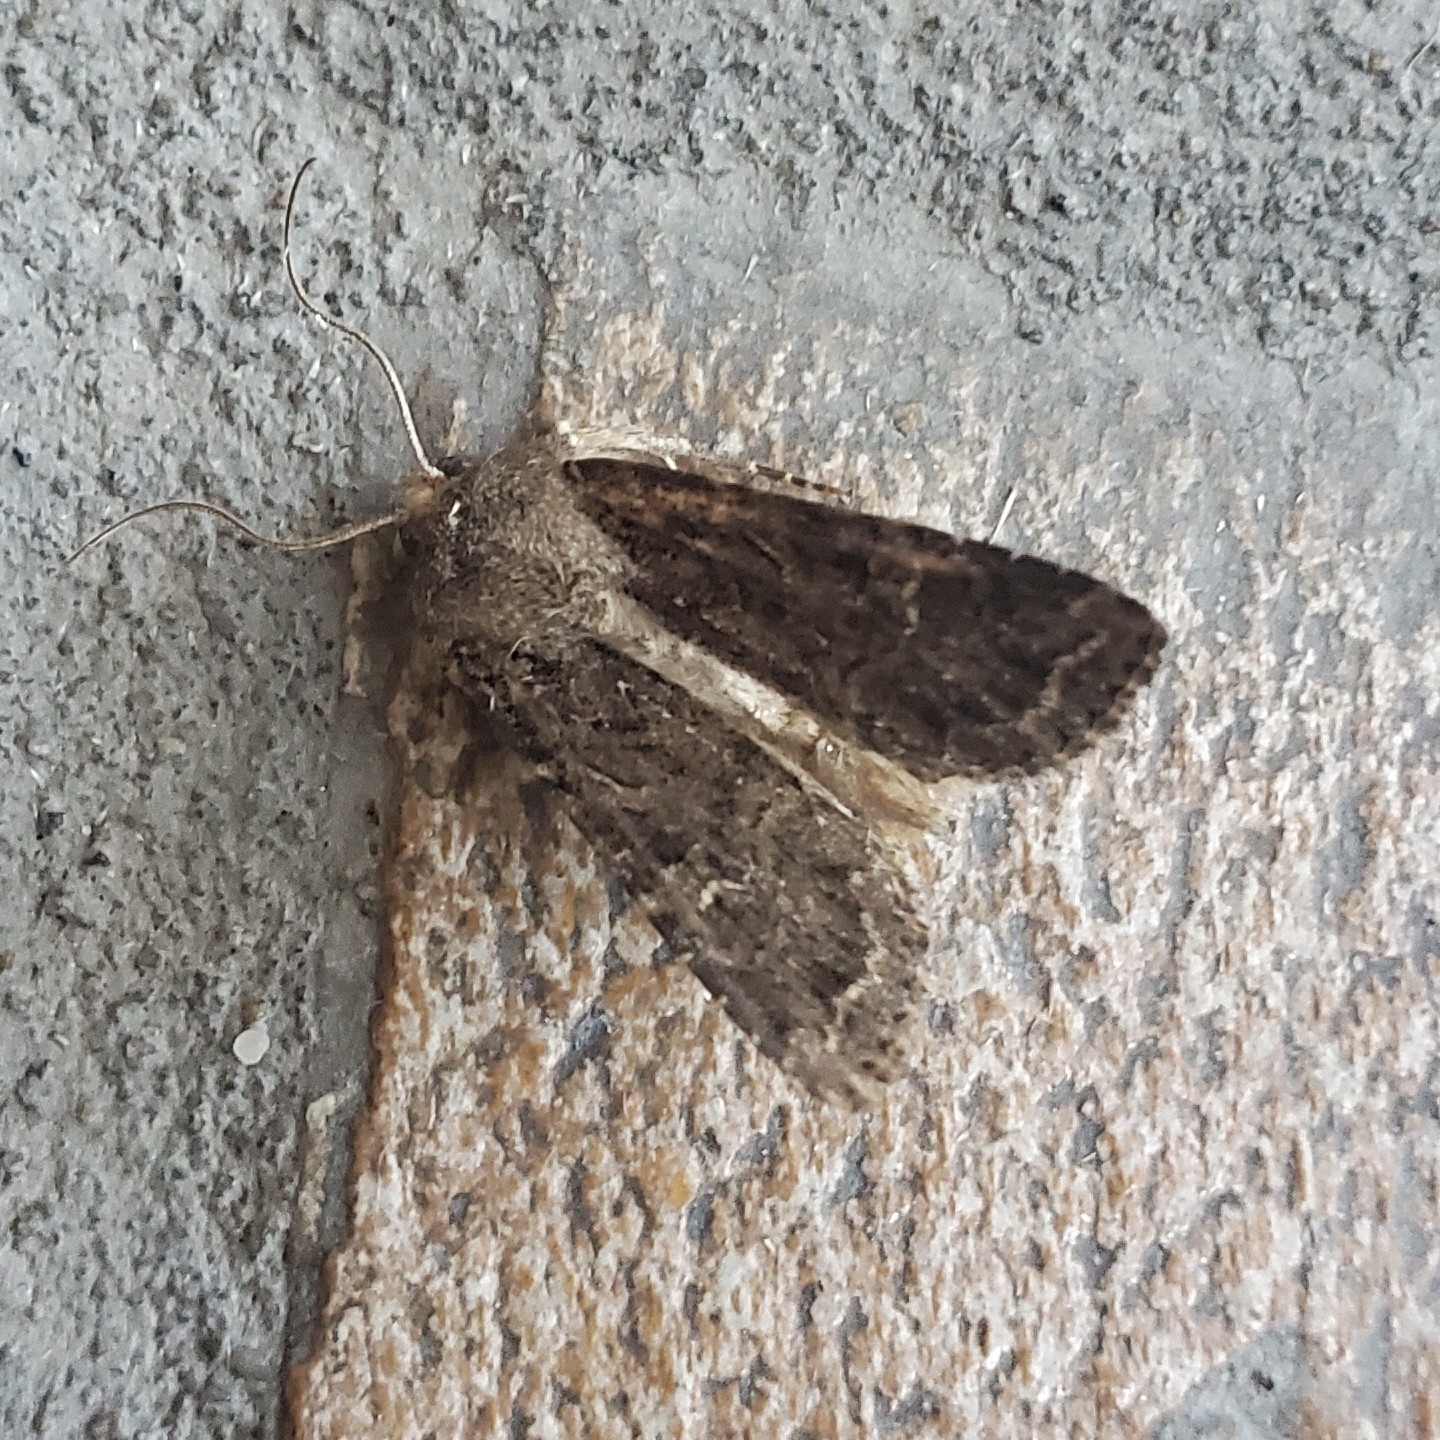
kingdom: Animalia
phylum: Arthropoda
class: Insecta
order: Lepidoptera
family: Noctuidae
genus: Apamea
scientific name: Apamea devastator
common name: Glassy cutworm
